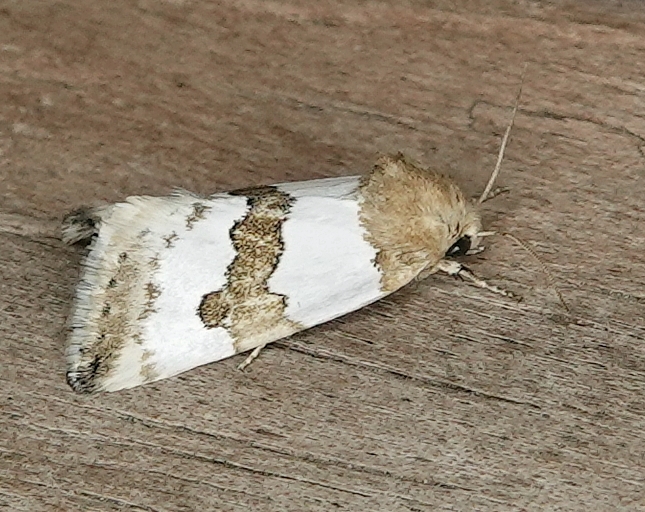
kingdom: Animalia
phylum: Arthropoda
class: Insecta
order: Lepidoptera
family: Noctuidae
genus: Schinia
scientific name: Schinia chryselloides
